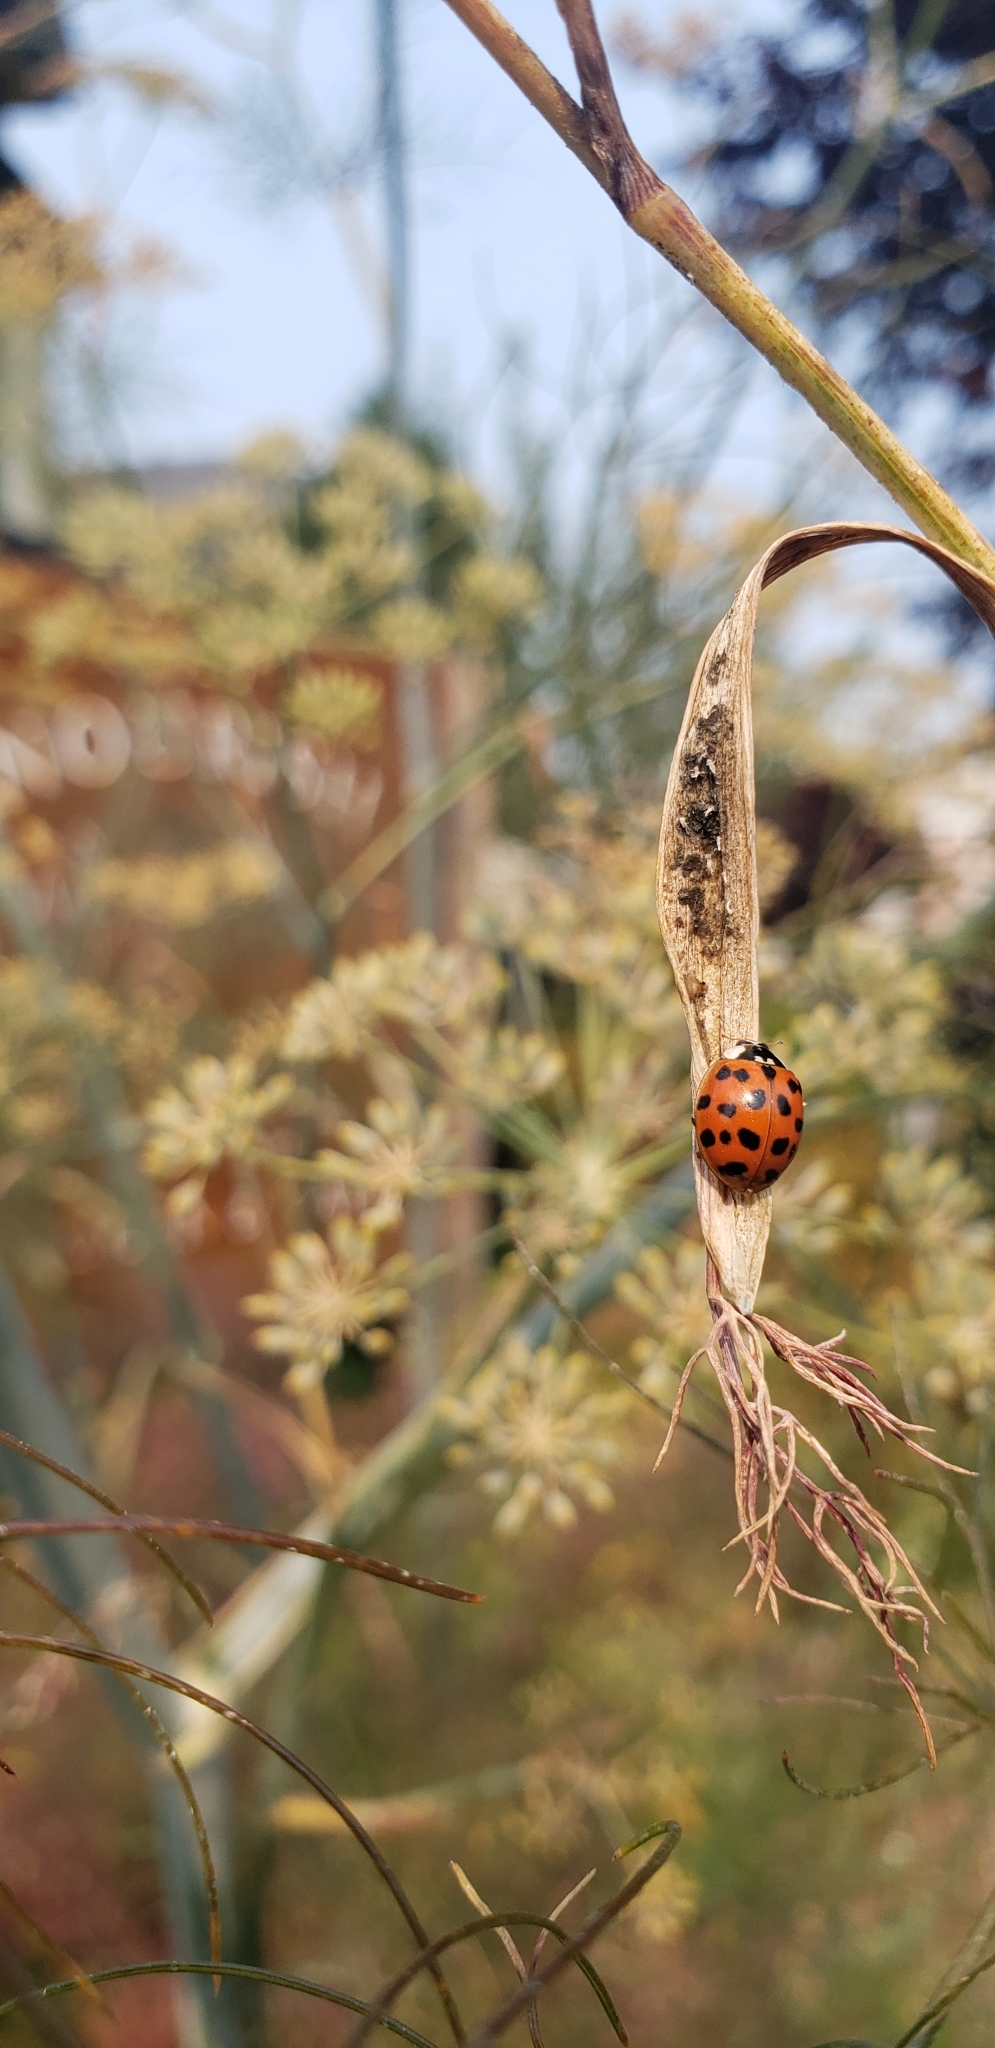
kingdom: Animalia
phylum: Arthropoda
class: Insecta
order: Coleoptera
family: Coccinellidae
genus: Harmonia
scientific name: Harmonia axyridis
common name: Harlequin ladybird
